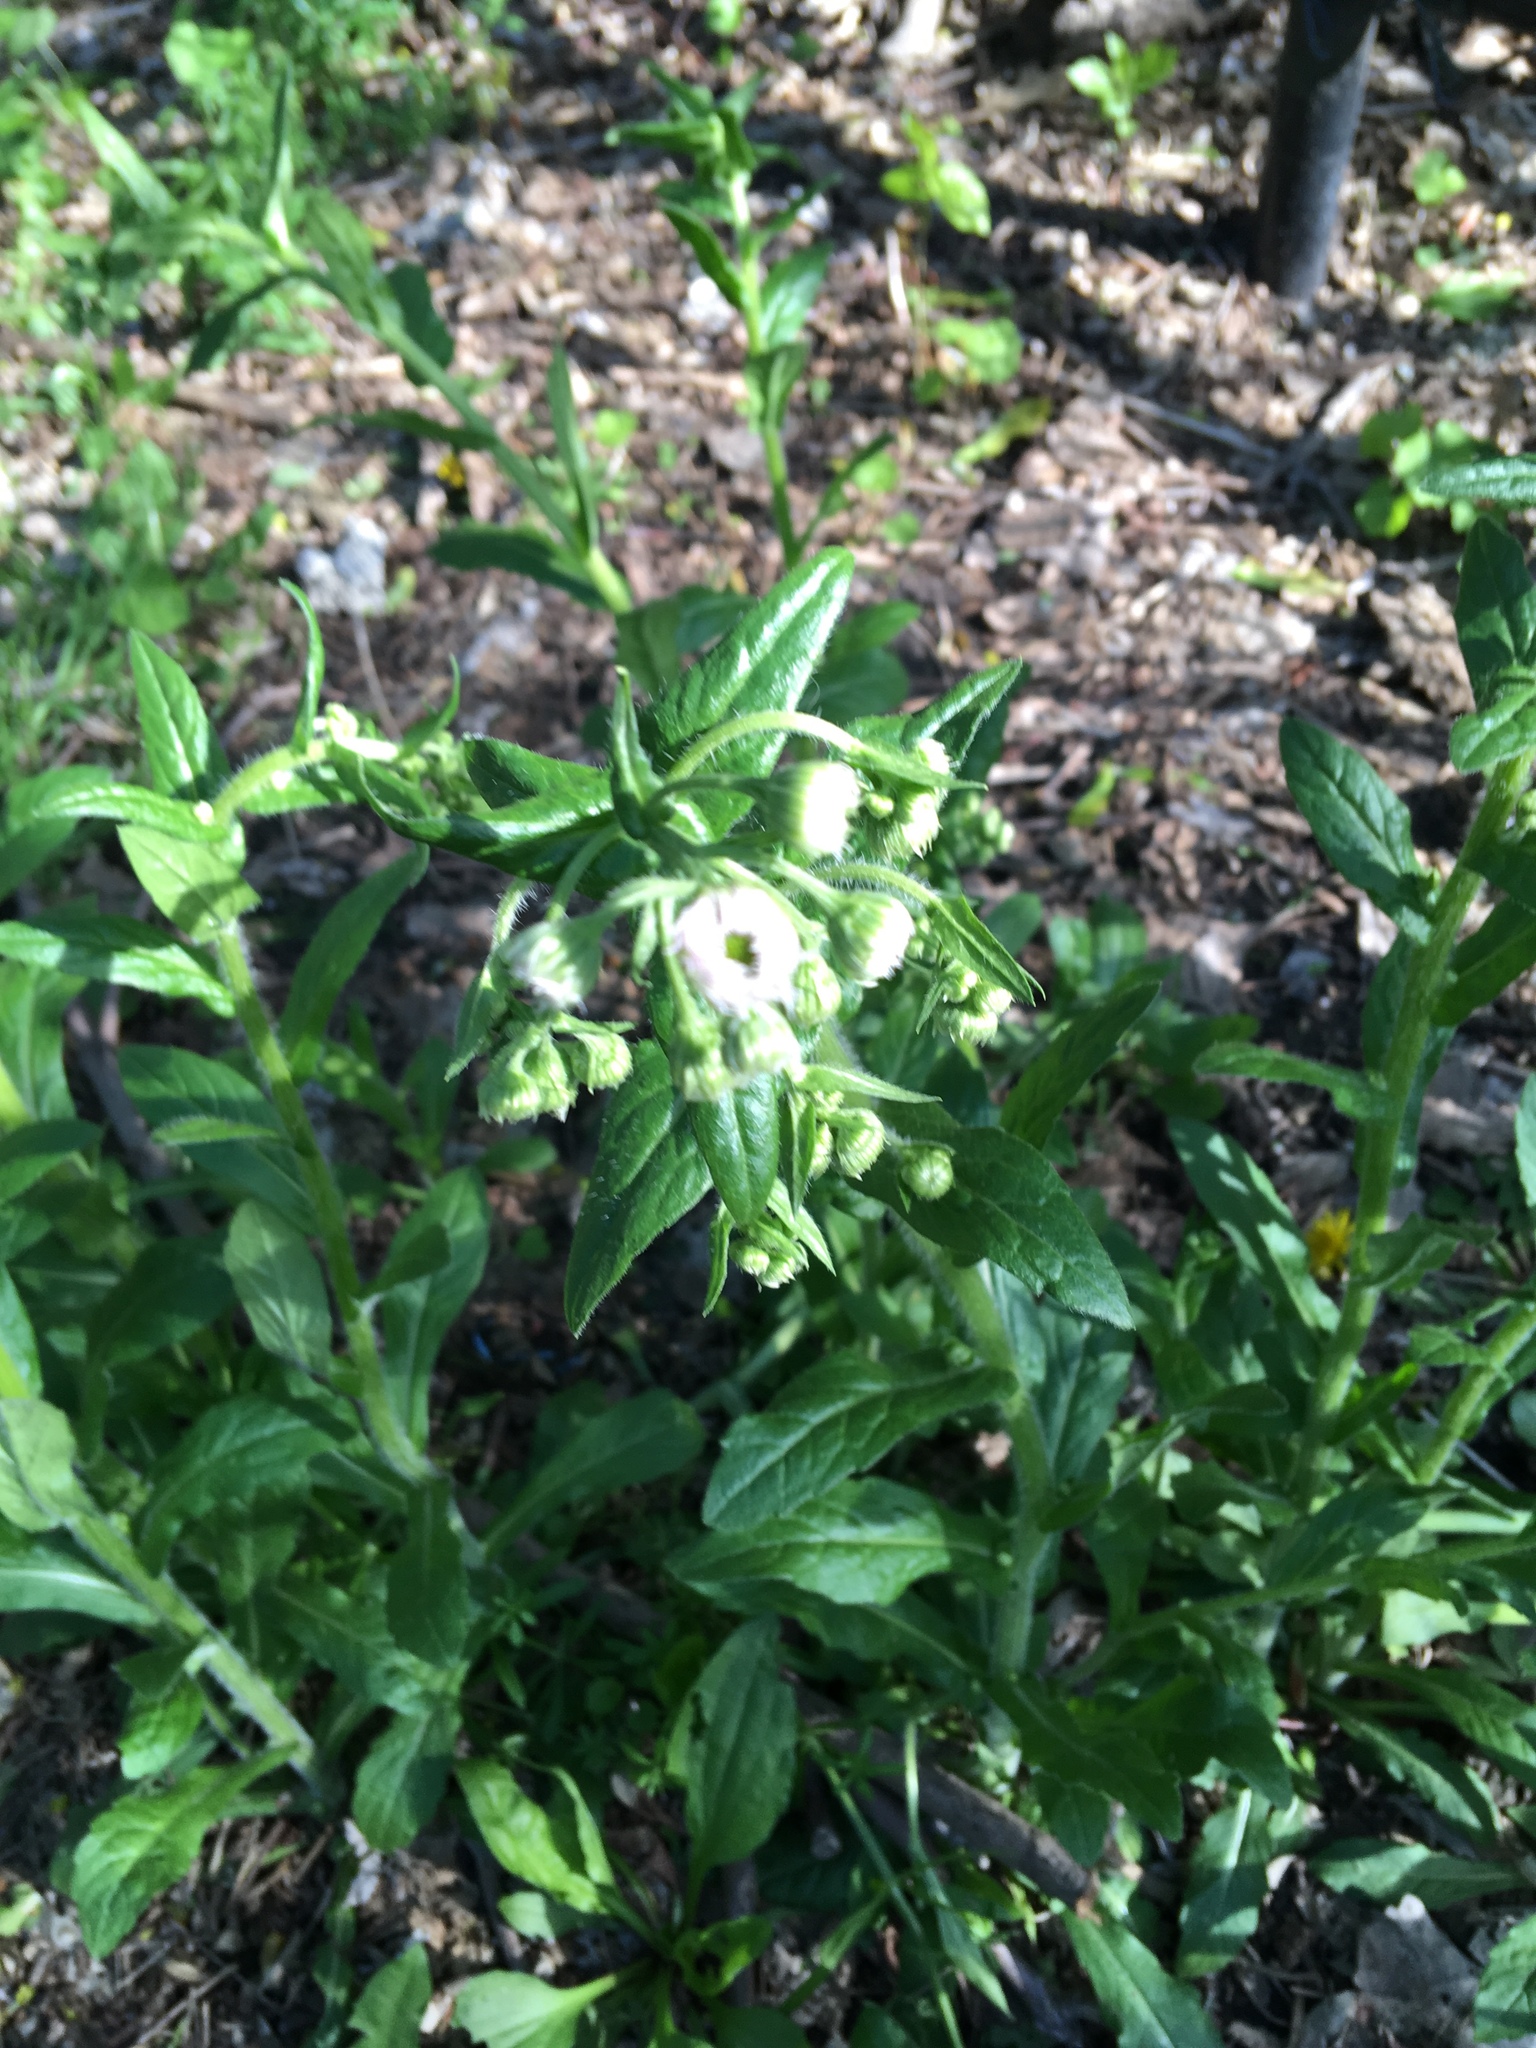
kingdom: Plantae
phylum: Tracheophyta
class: Magnoliopsida
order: Asterales
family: Asteraceae
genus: Erigeron
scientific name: Erigeron philadelphicus
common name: Robin's-plantain
